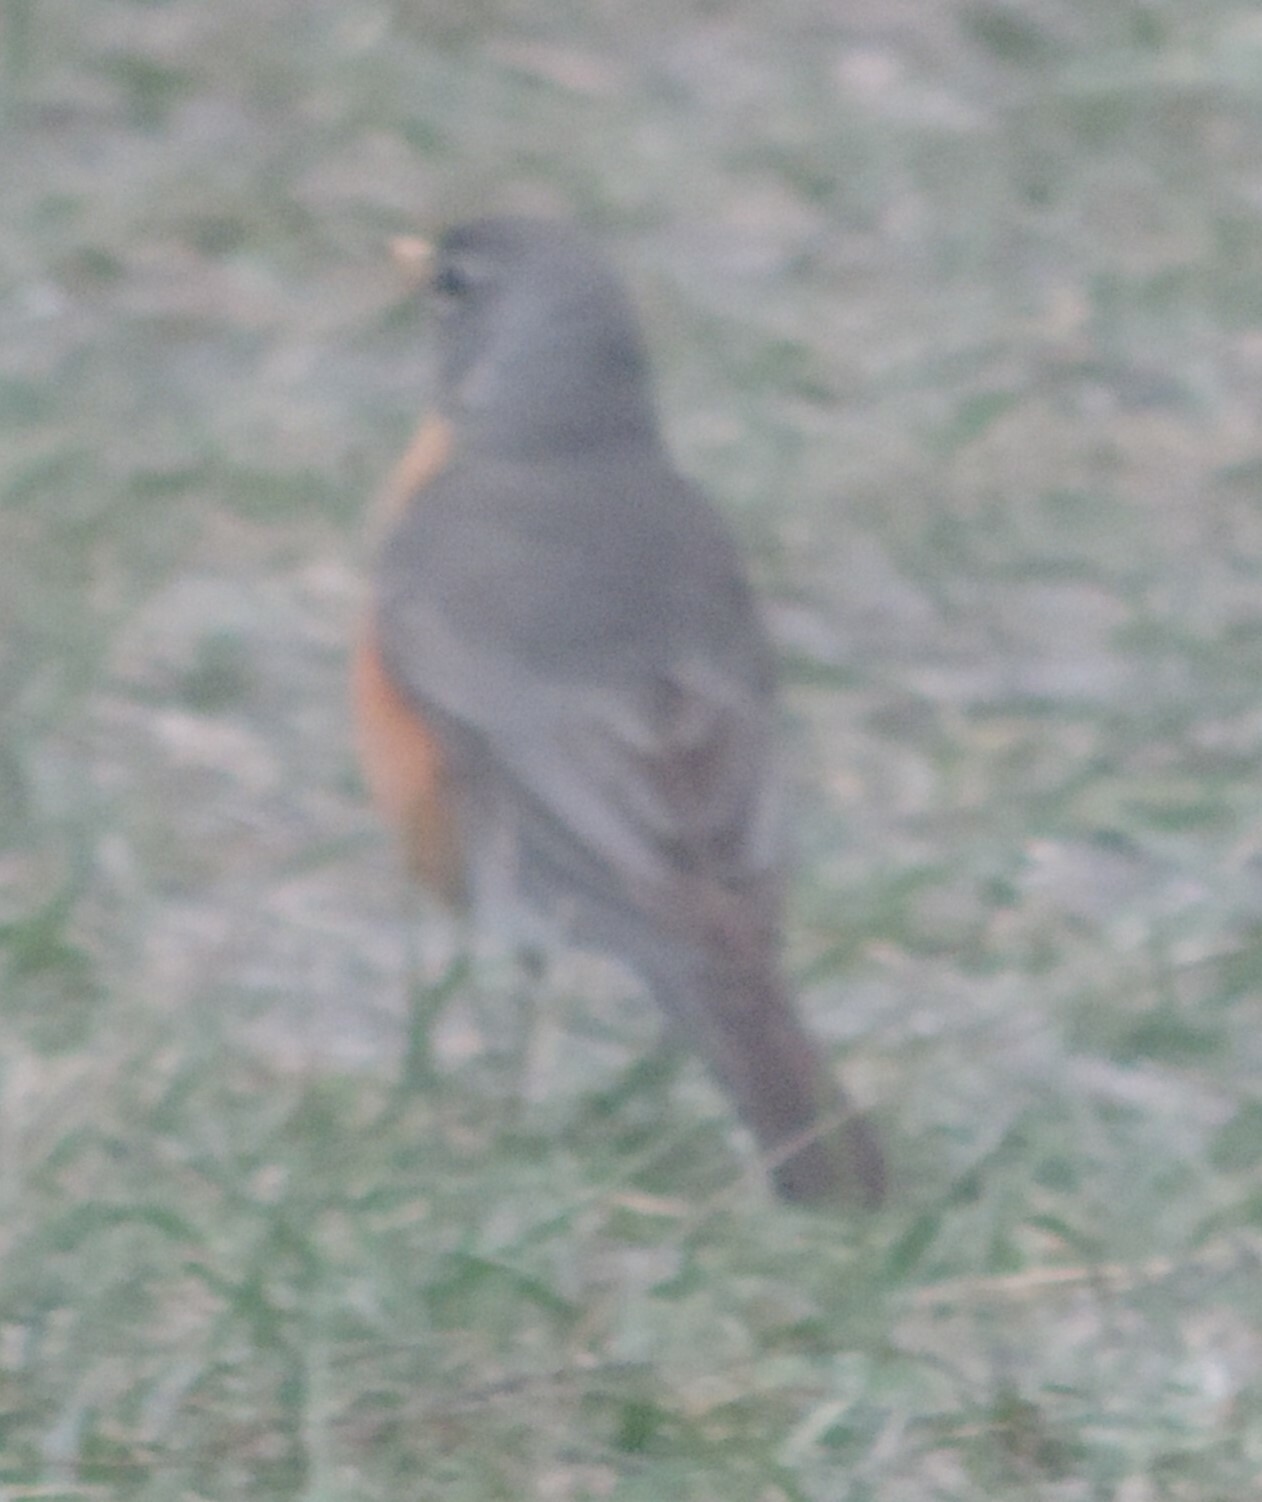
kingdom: Animalia
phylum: Chordata
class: Aves
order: Passeriformes
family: Turdidae
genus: Turdus
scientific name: Turdus migratorius
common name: American robin
